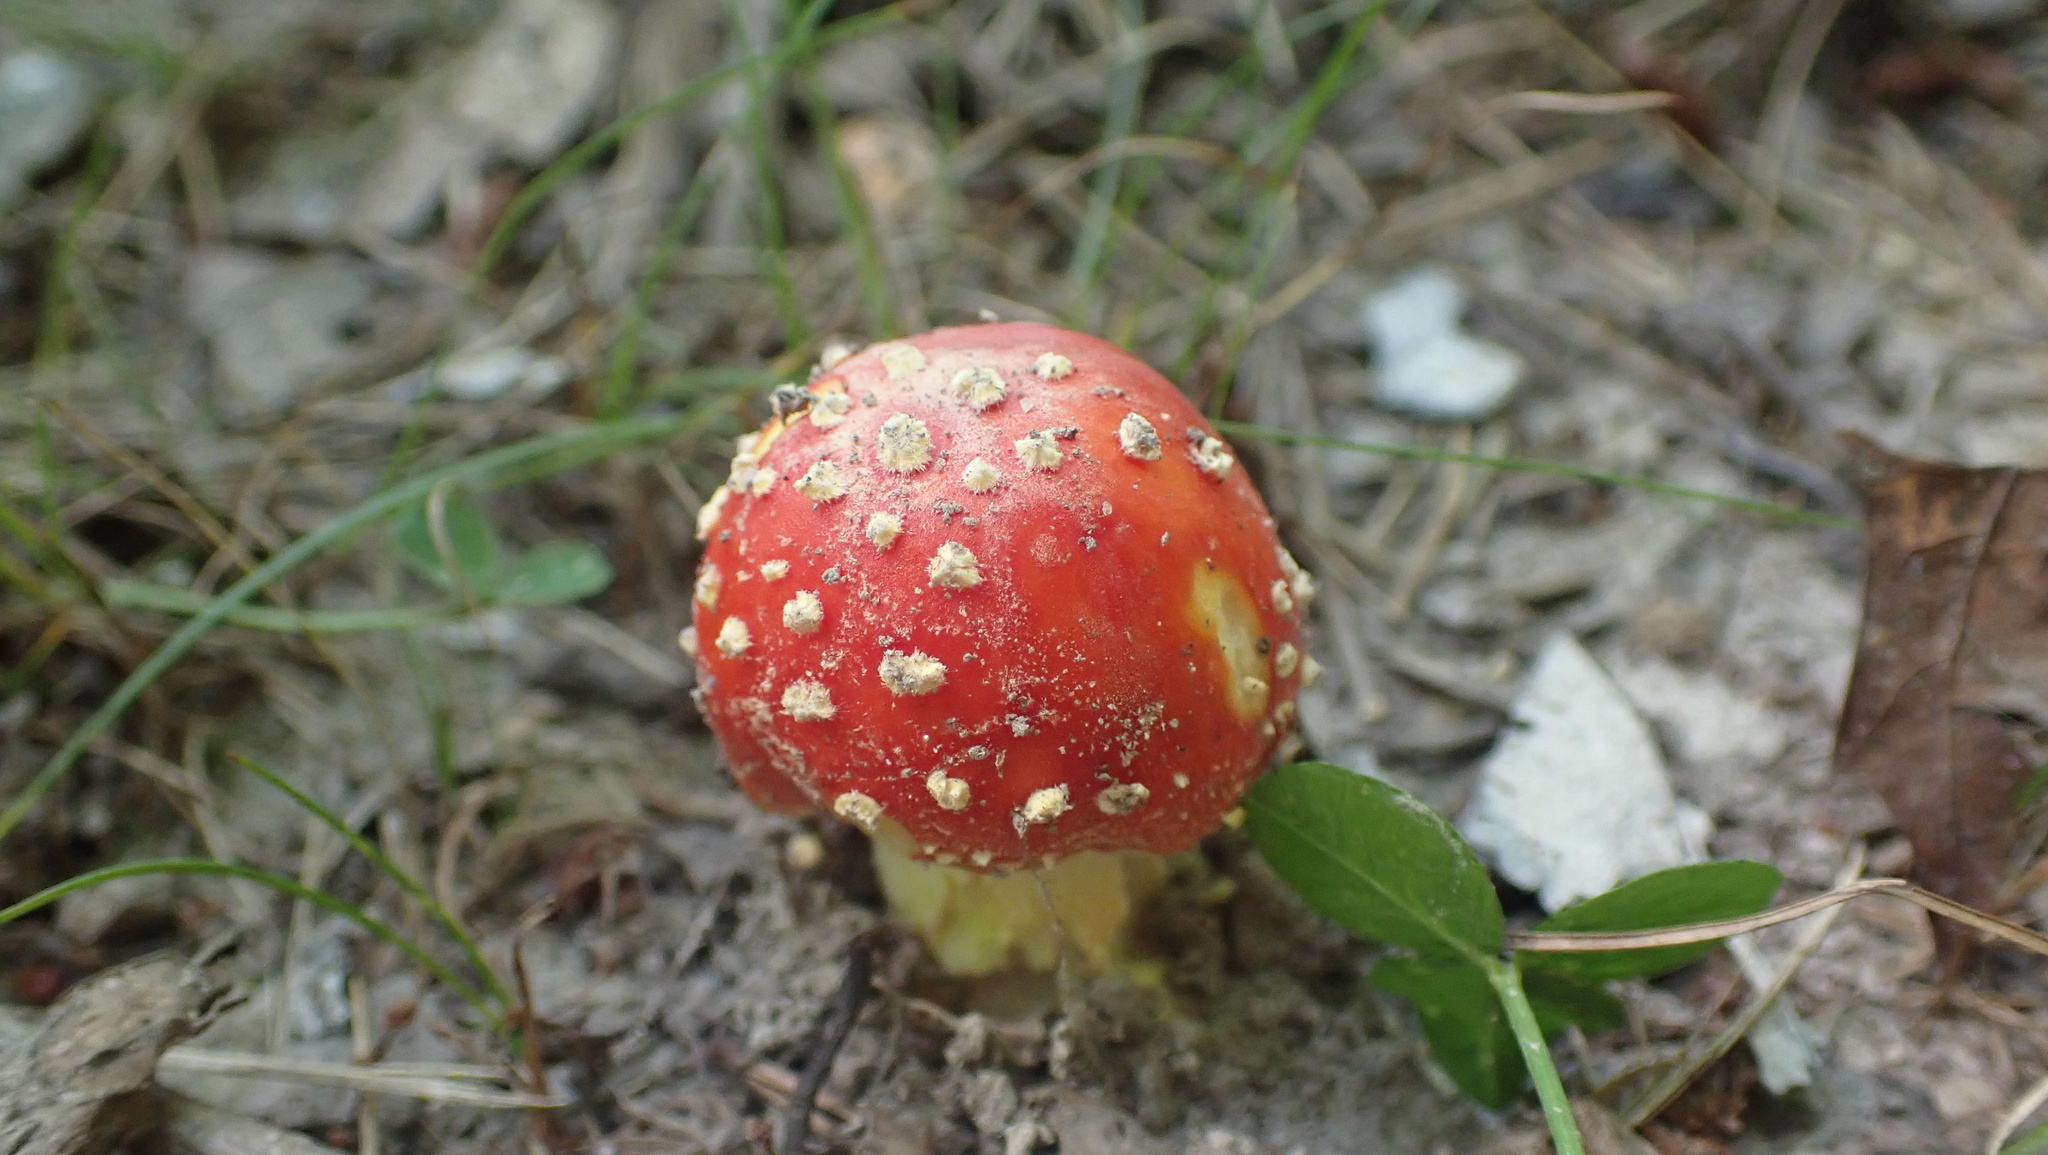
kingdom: Fungi
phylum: Basidiomycota
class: Agaricomycetes
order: Agaricales
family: Amanitaceae
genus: Amanita
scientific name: Amanita parcivolvata
